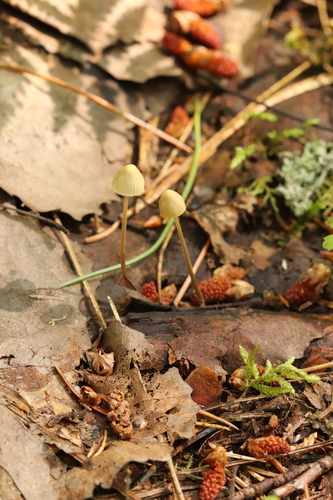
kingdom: Fungi
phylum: Basidiomycota
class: Agaricomycetes
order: Agaricales
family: Mycenaceae
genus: Mycena
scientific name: Mycena citrinomarginata
